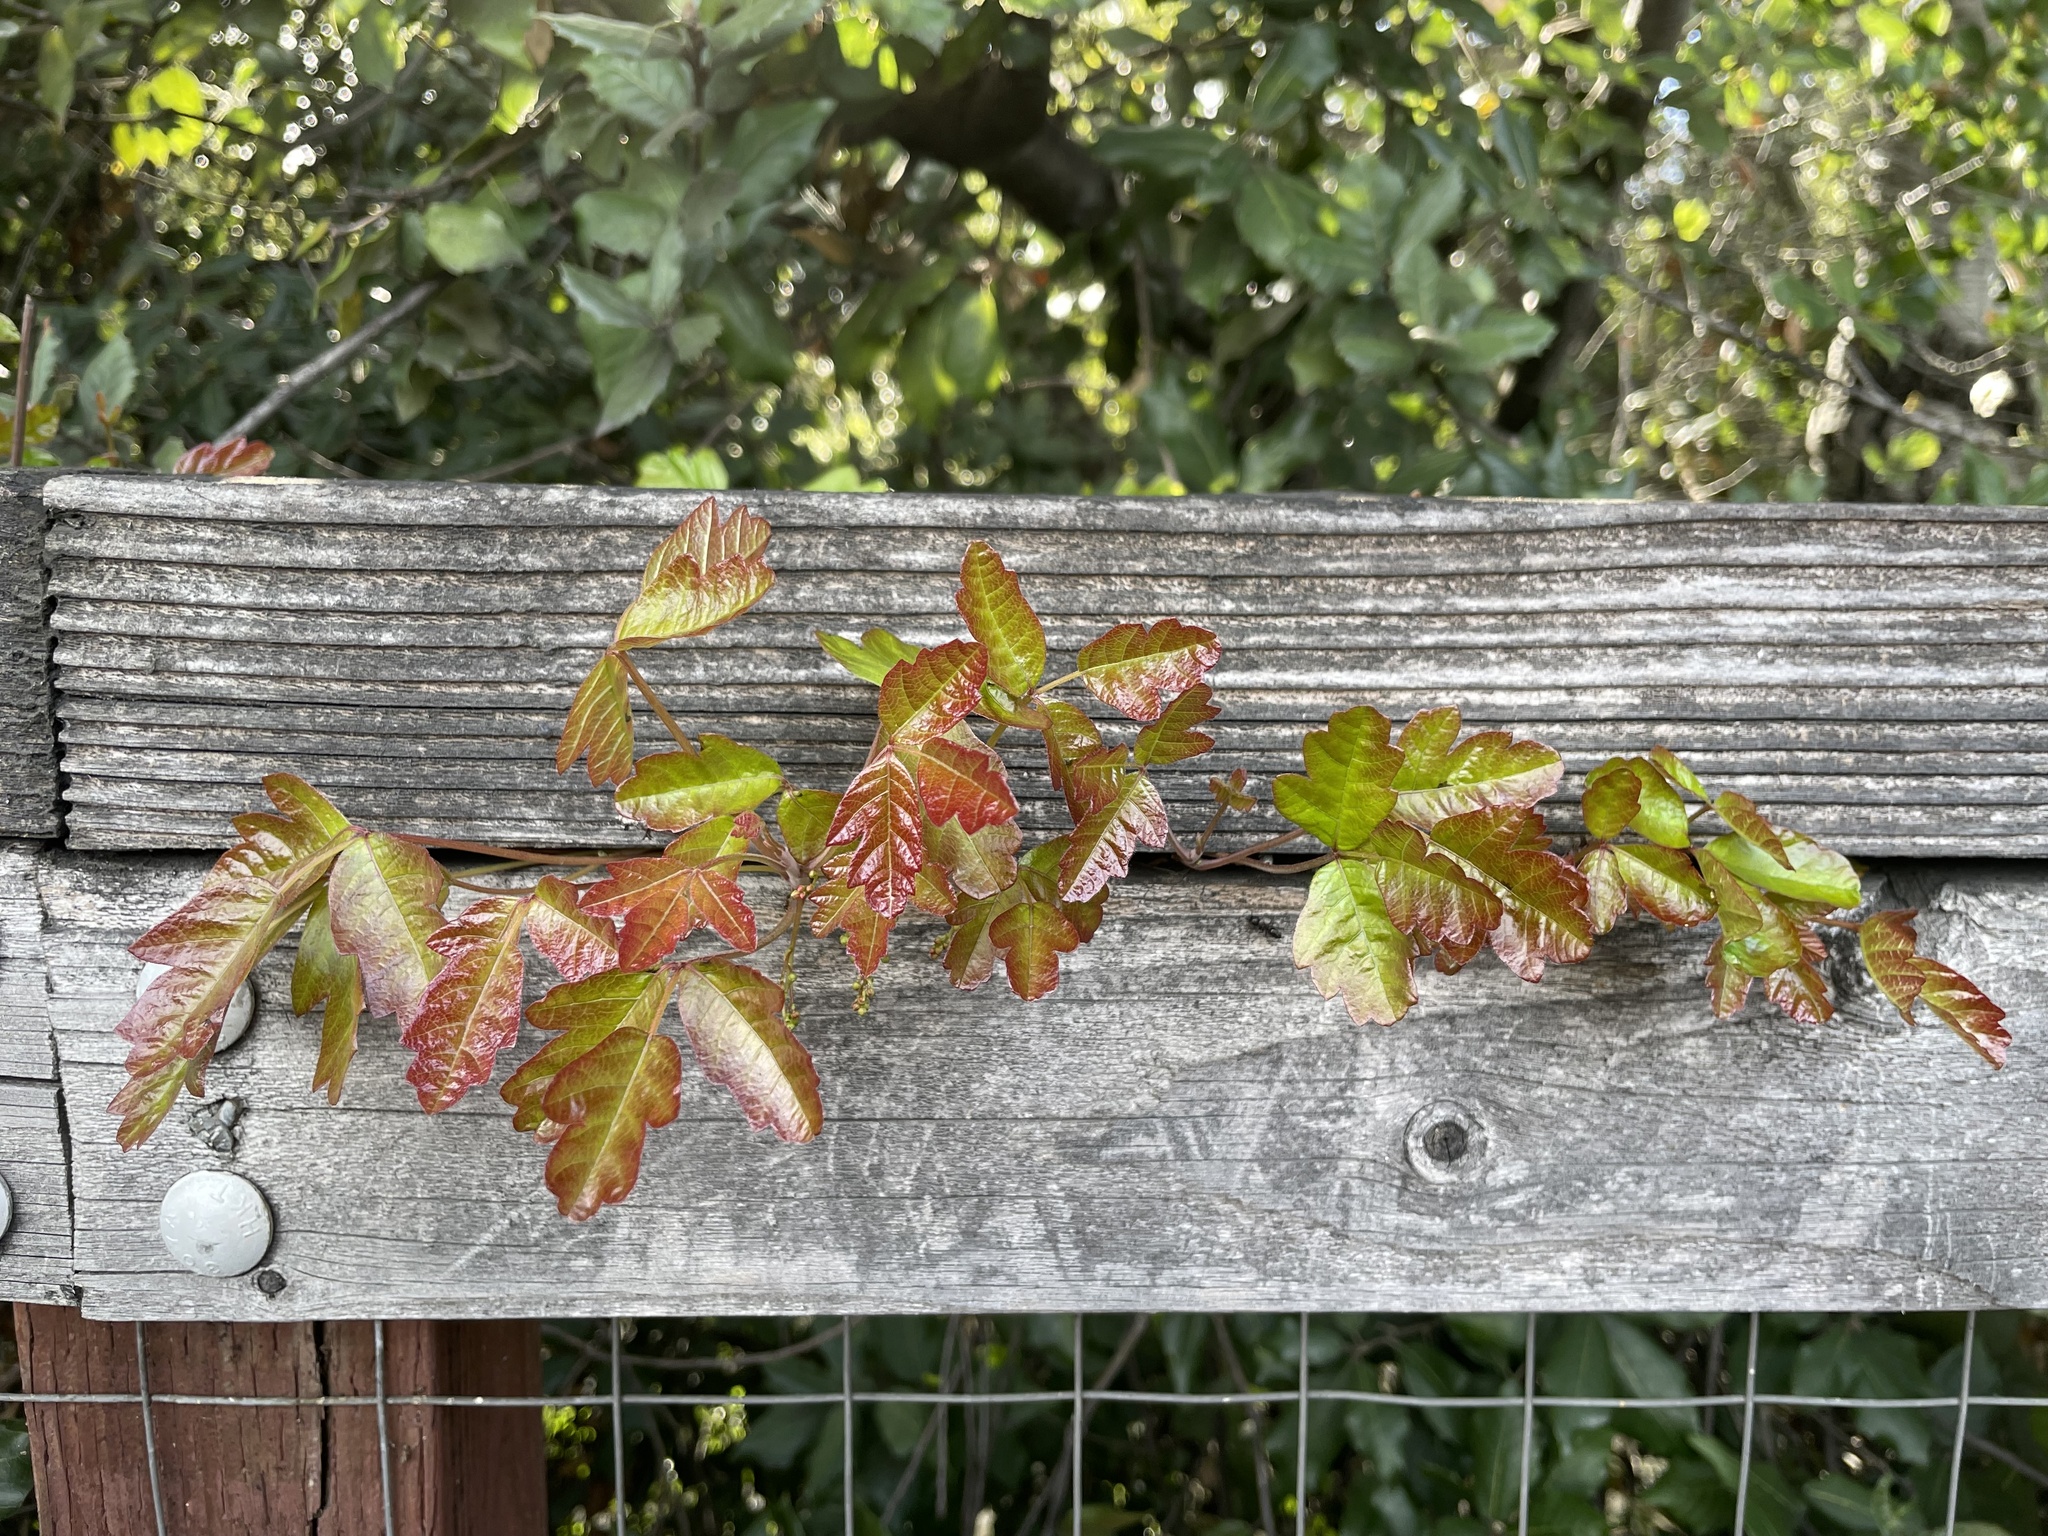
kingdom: Plantae
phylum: Tracheophyta
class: Magnoliopsida
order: Sapindales
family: Anacardiaceae
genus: Toxicodendron
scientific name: Toxicodendron diversilobum
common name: Pacific poison-oak
